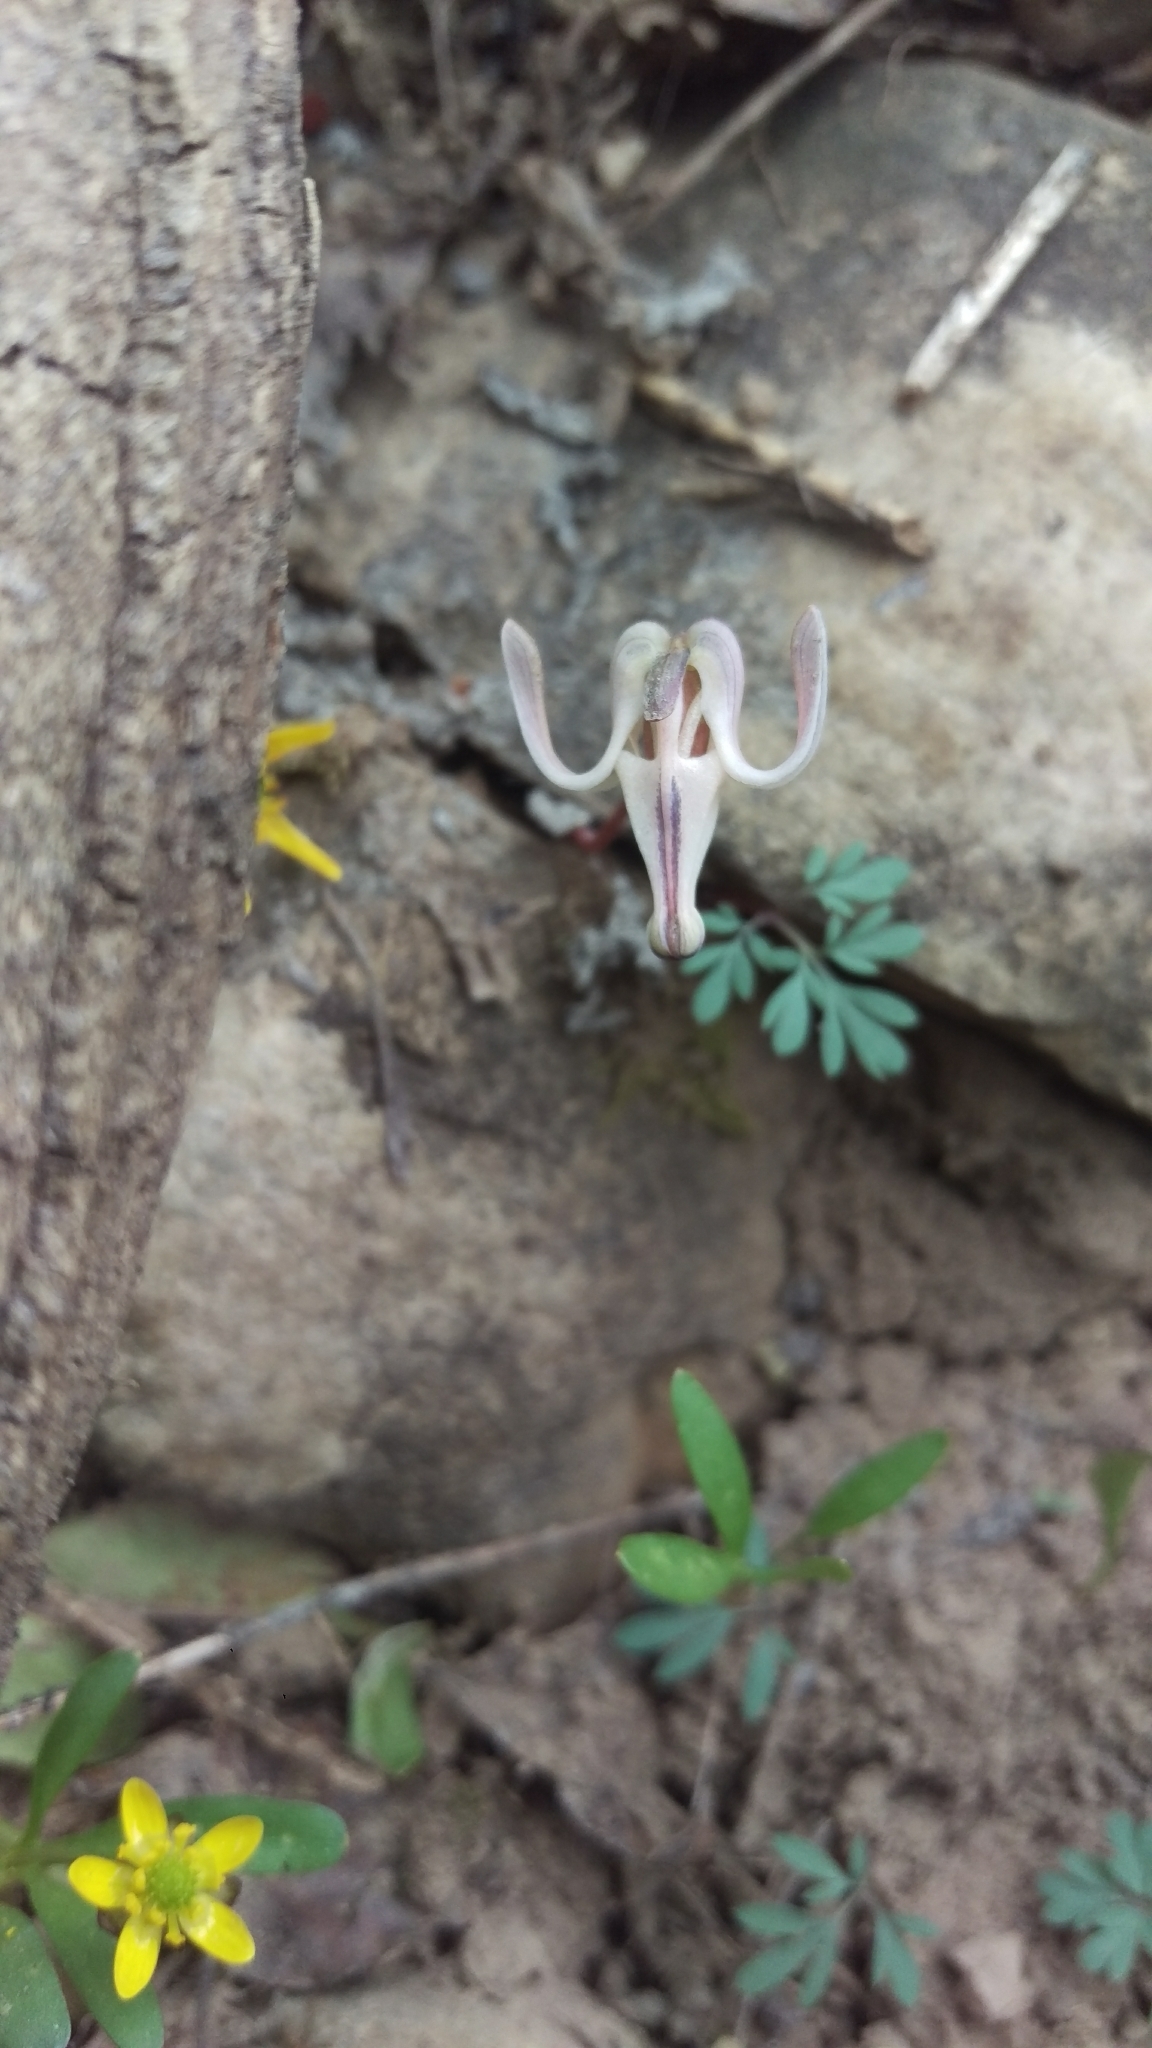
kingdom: Plantae
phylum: Tracheophyta
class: Magnoliopsida
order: Ranunculales
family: Papaveraceae
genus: Dicentra
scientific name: Dicentra uniflora
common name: Steer's-head
